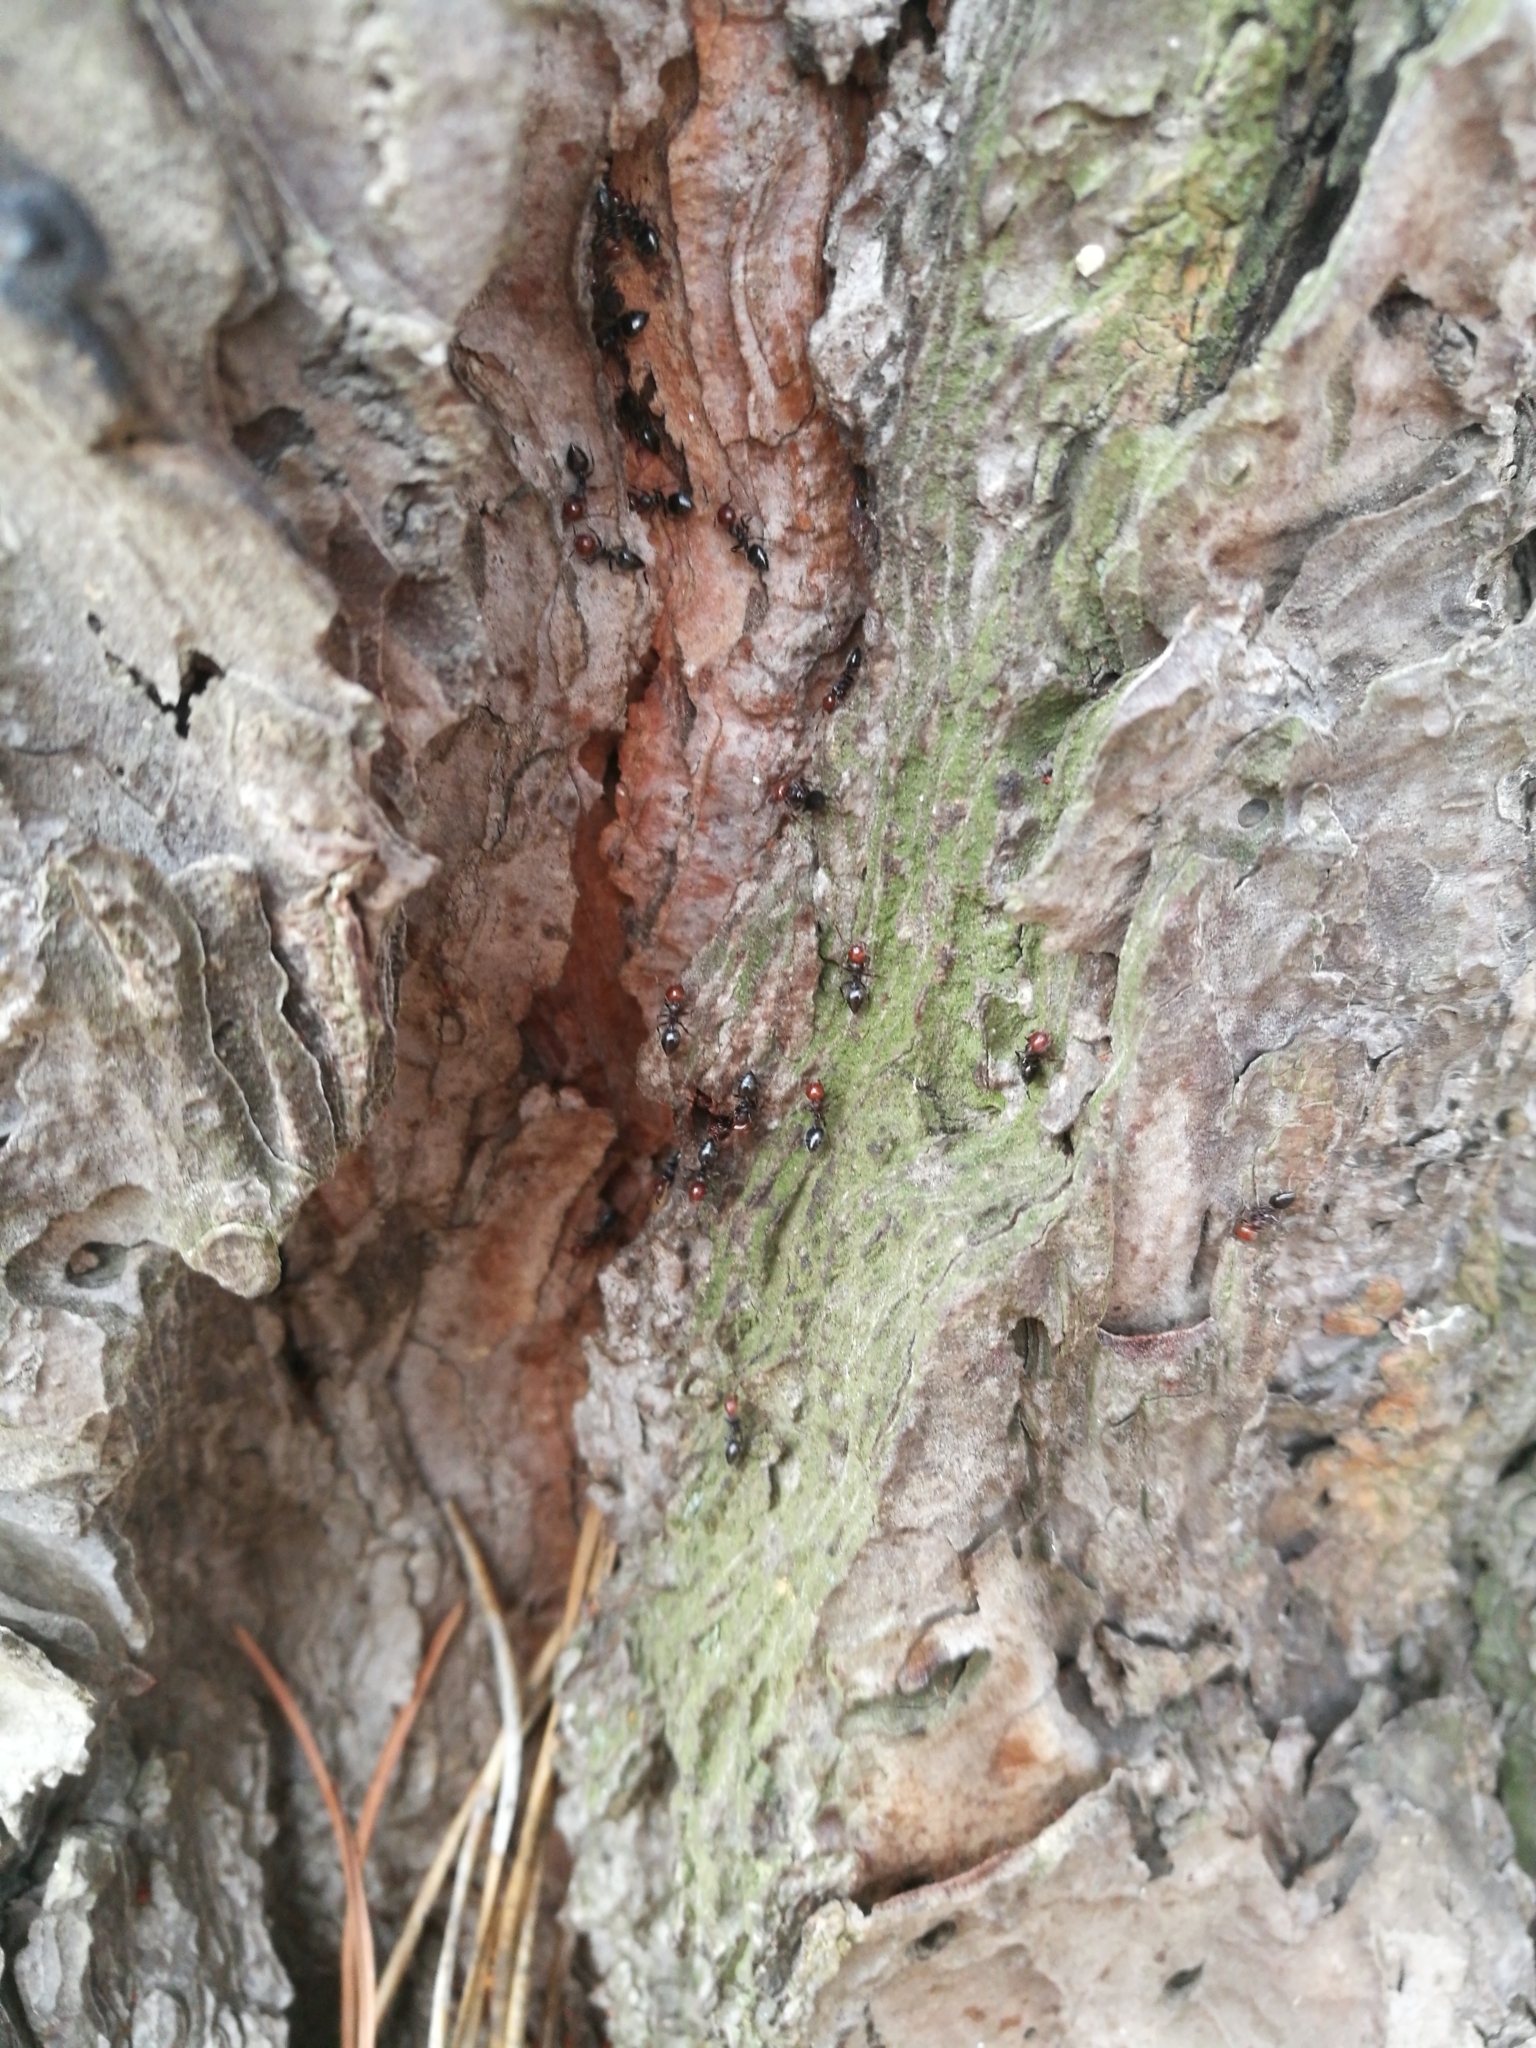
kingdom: Animalia
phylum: Arthropoda
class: Insecta
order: Hymenoptera
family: Formicidae
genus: Crematogaster
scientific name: Crematogaster scutellaris
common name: Fourmi du liège
